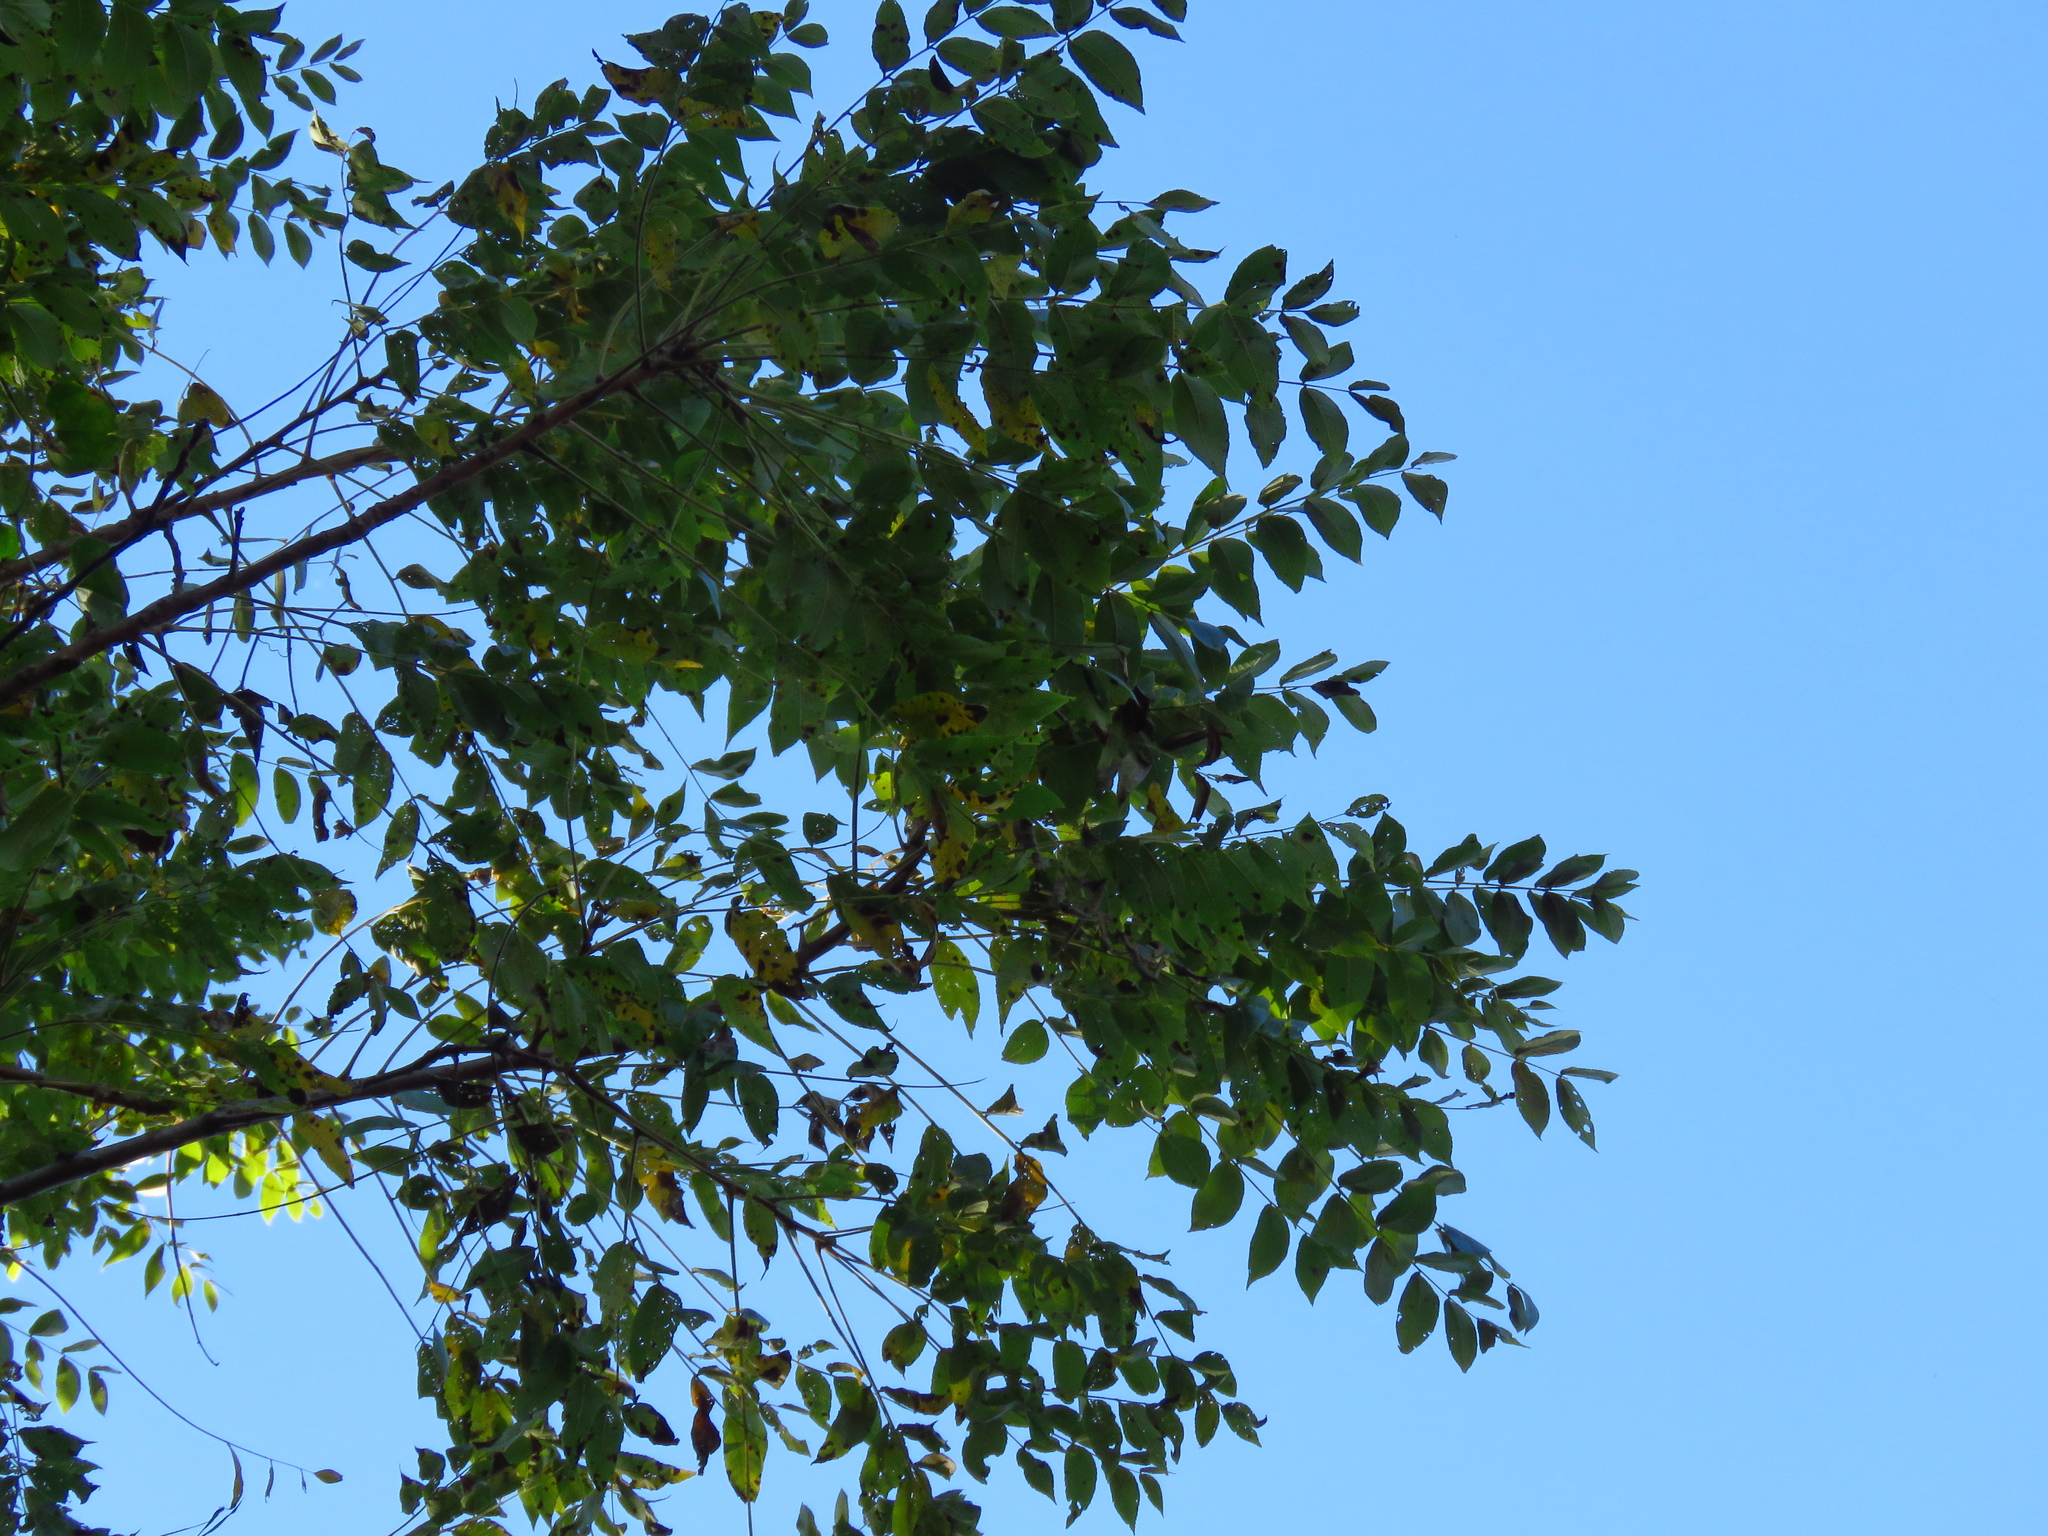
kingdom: Plantae
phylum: Tracheophyta
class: Magnoliopsida
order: Fagales
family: Juglandaceae
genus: Juglans
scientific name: Juglans nigra
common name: Black walnut
